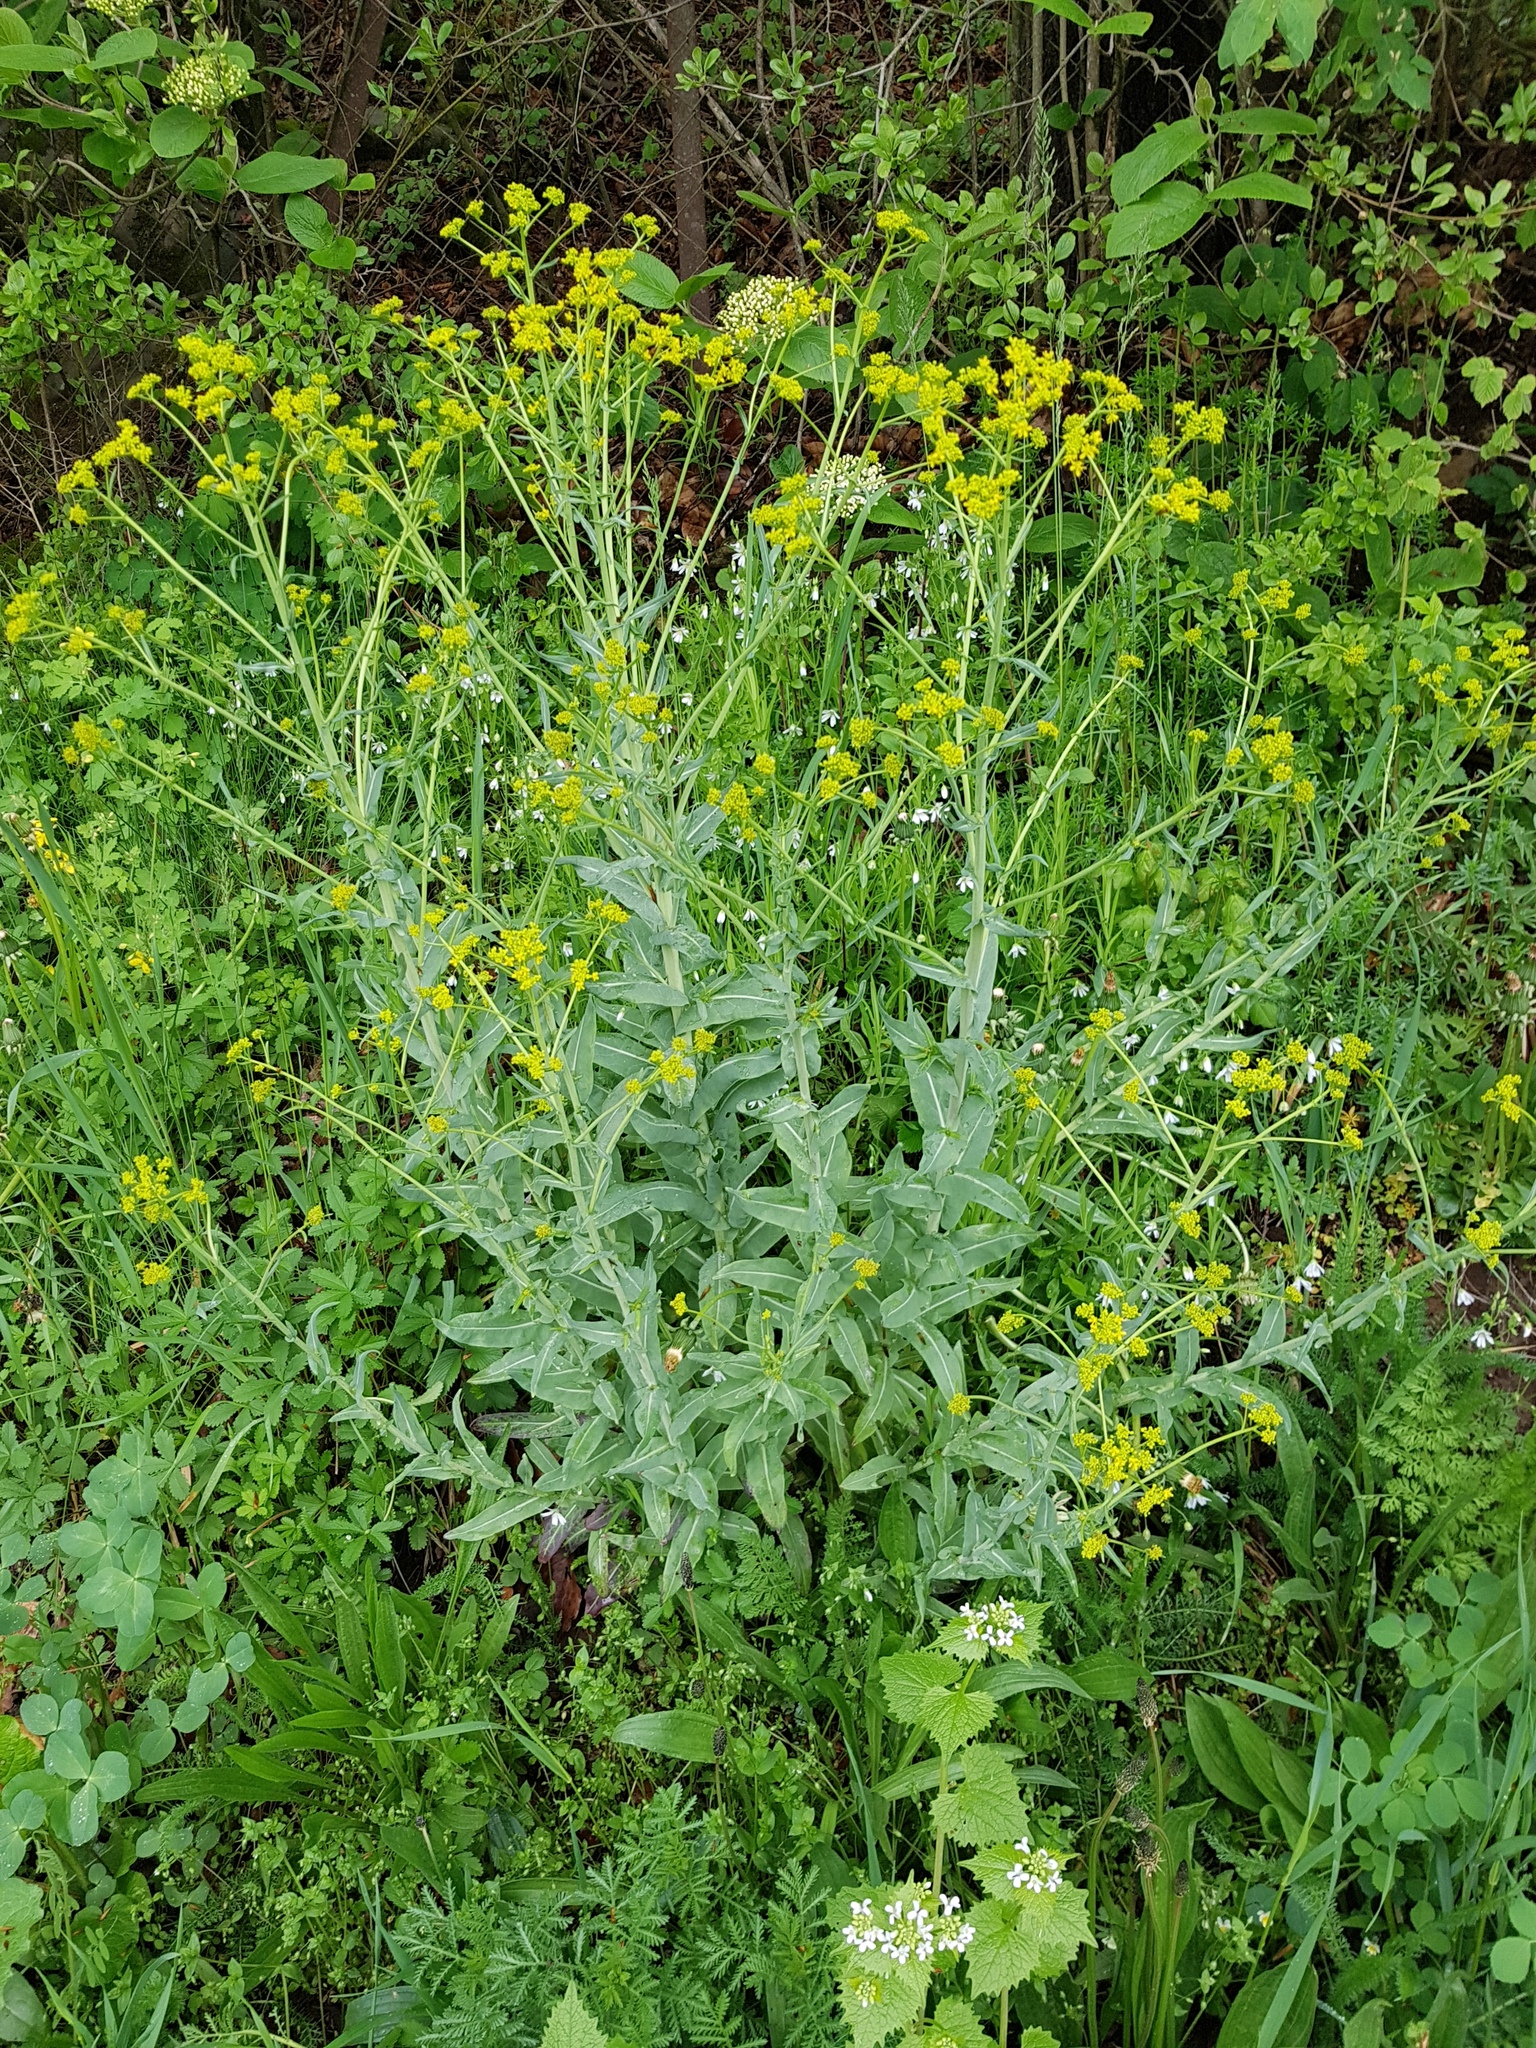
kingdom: Plantae
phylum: Tracheophyta
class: Magnoliopsida
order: Brassicales
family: Brassicaceae
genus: Isatis
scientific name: Isatis tinctoria
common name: Woad
